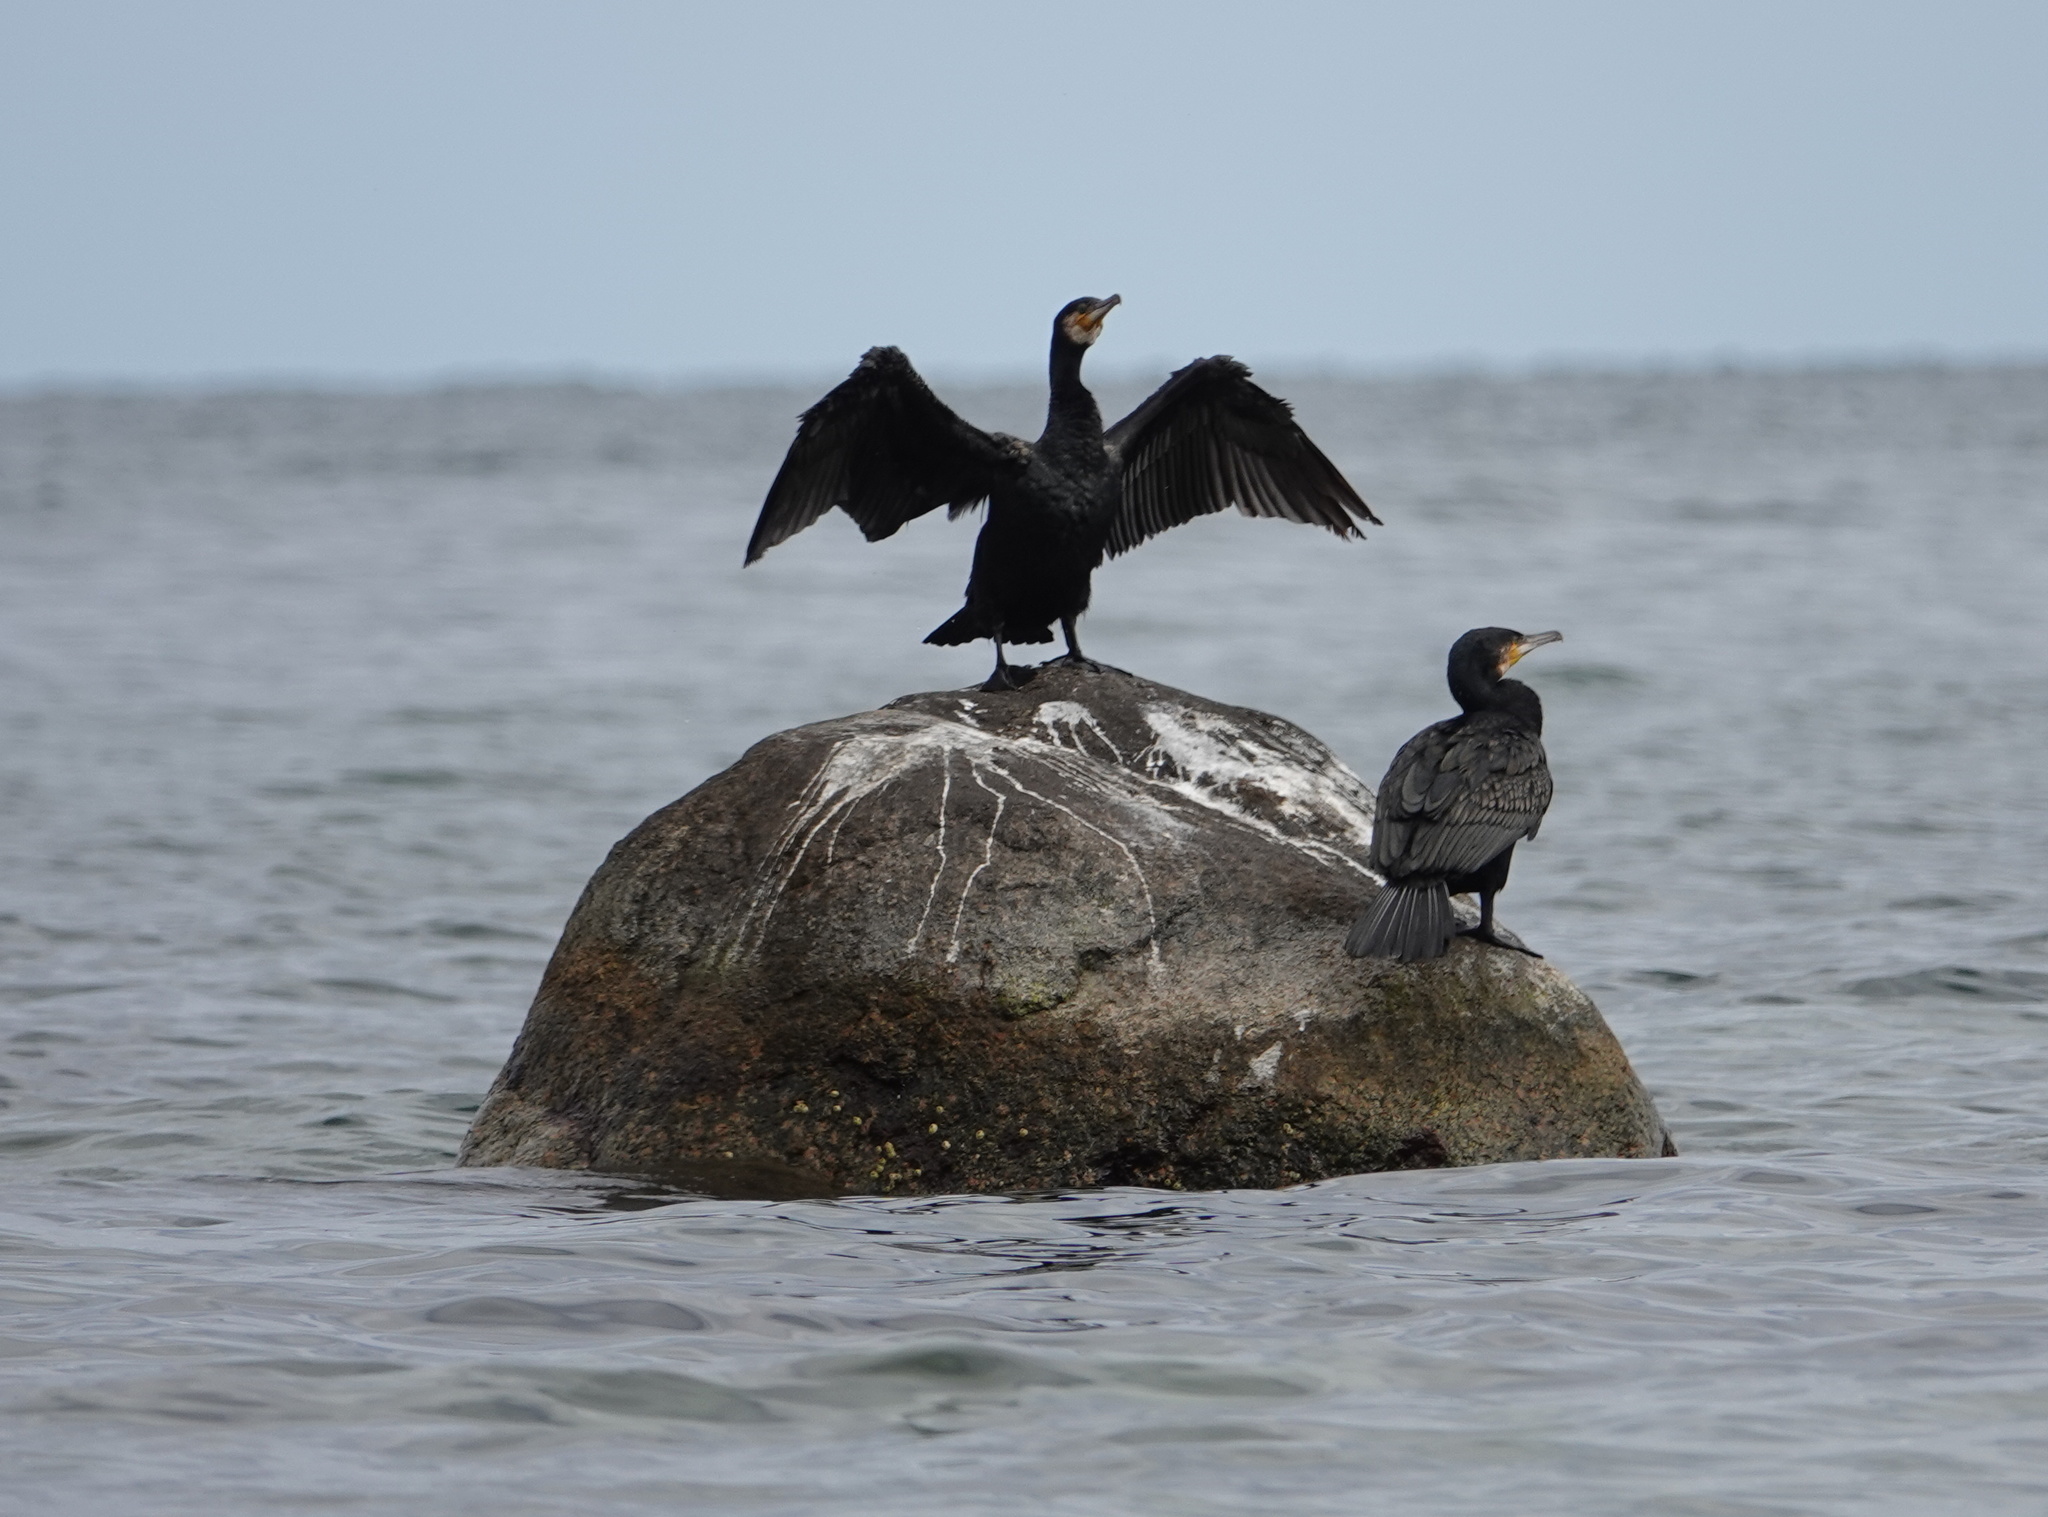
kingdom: Animalia
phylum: Chordata
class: Aves
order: Suliformes
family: Phalacrocoracidae
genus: Phalacrocorax
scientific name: Phalacrocorax carbo
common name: Great cormorant
